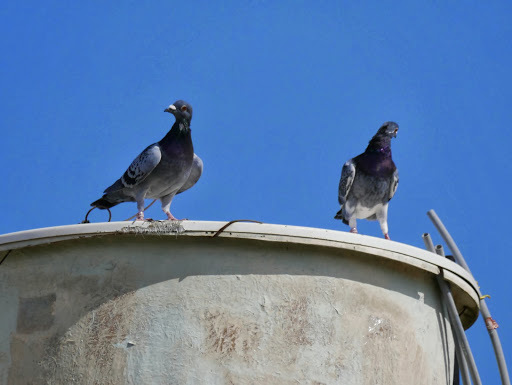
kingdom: Animalia
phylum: Chordata
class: Aves
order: Columbiformes
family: Columbidae
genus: Columba
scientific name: Columba livia
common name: Rock pigeon
